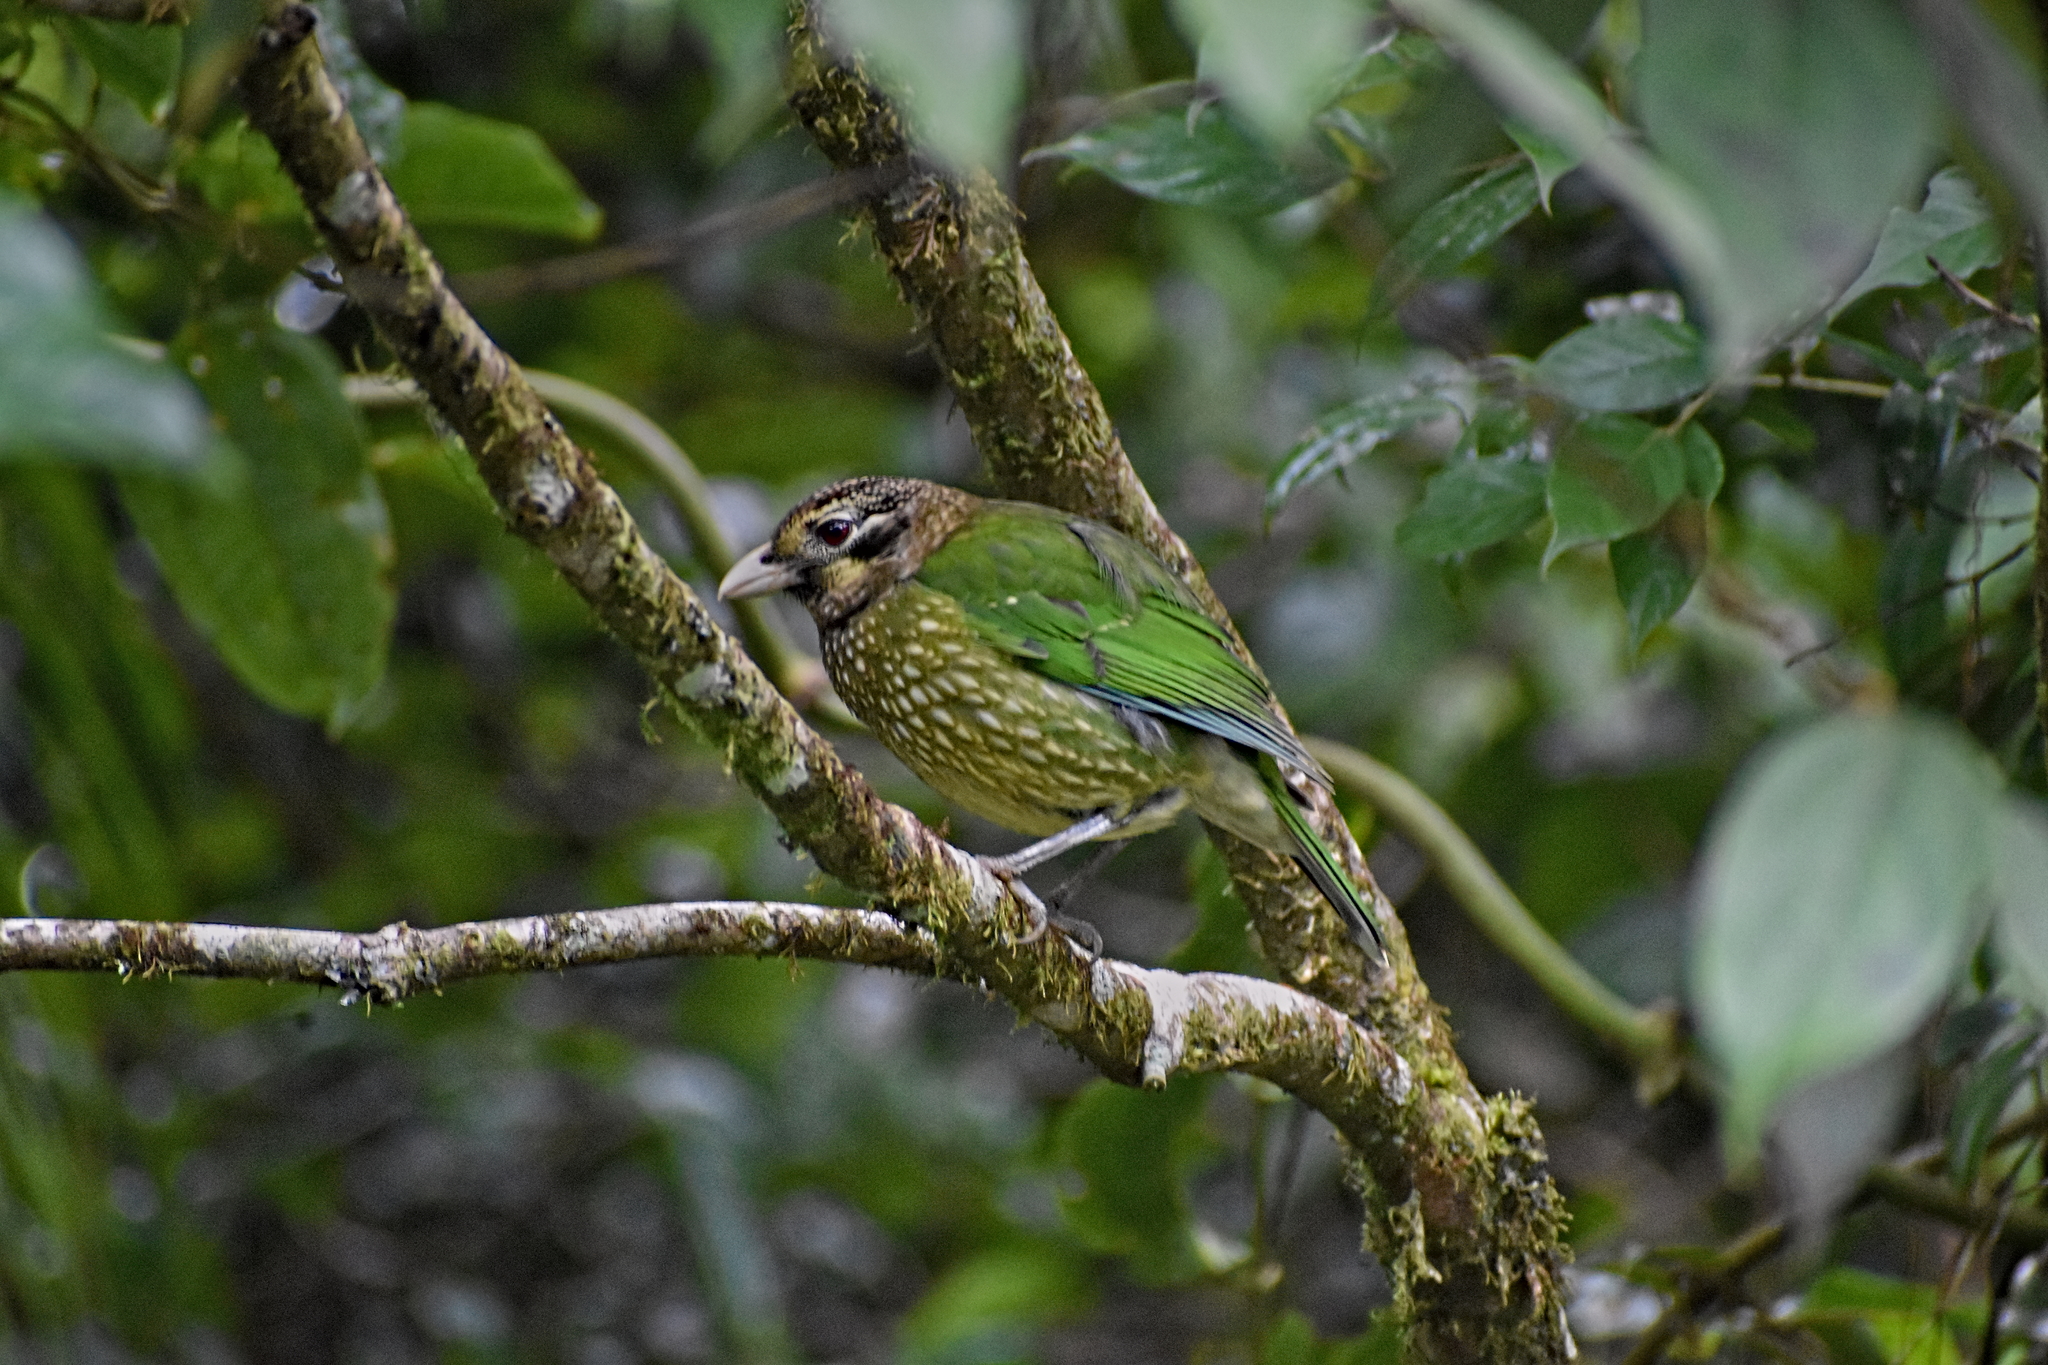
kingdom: Animalia
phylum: Chordata
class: Aves
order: Passeriformes
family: Ptilonorhynchidae
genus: Ailuroedus
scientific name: Ailuroedus maculosus
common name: Spotted catbird
